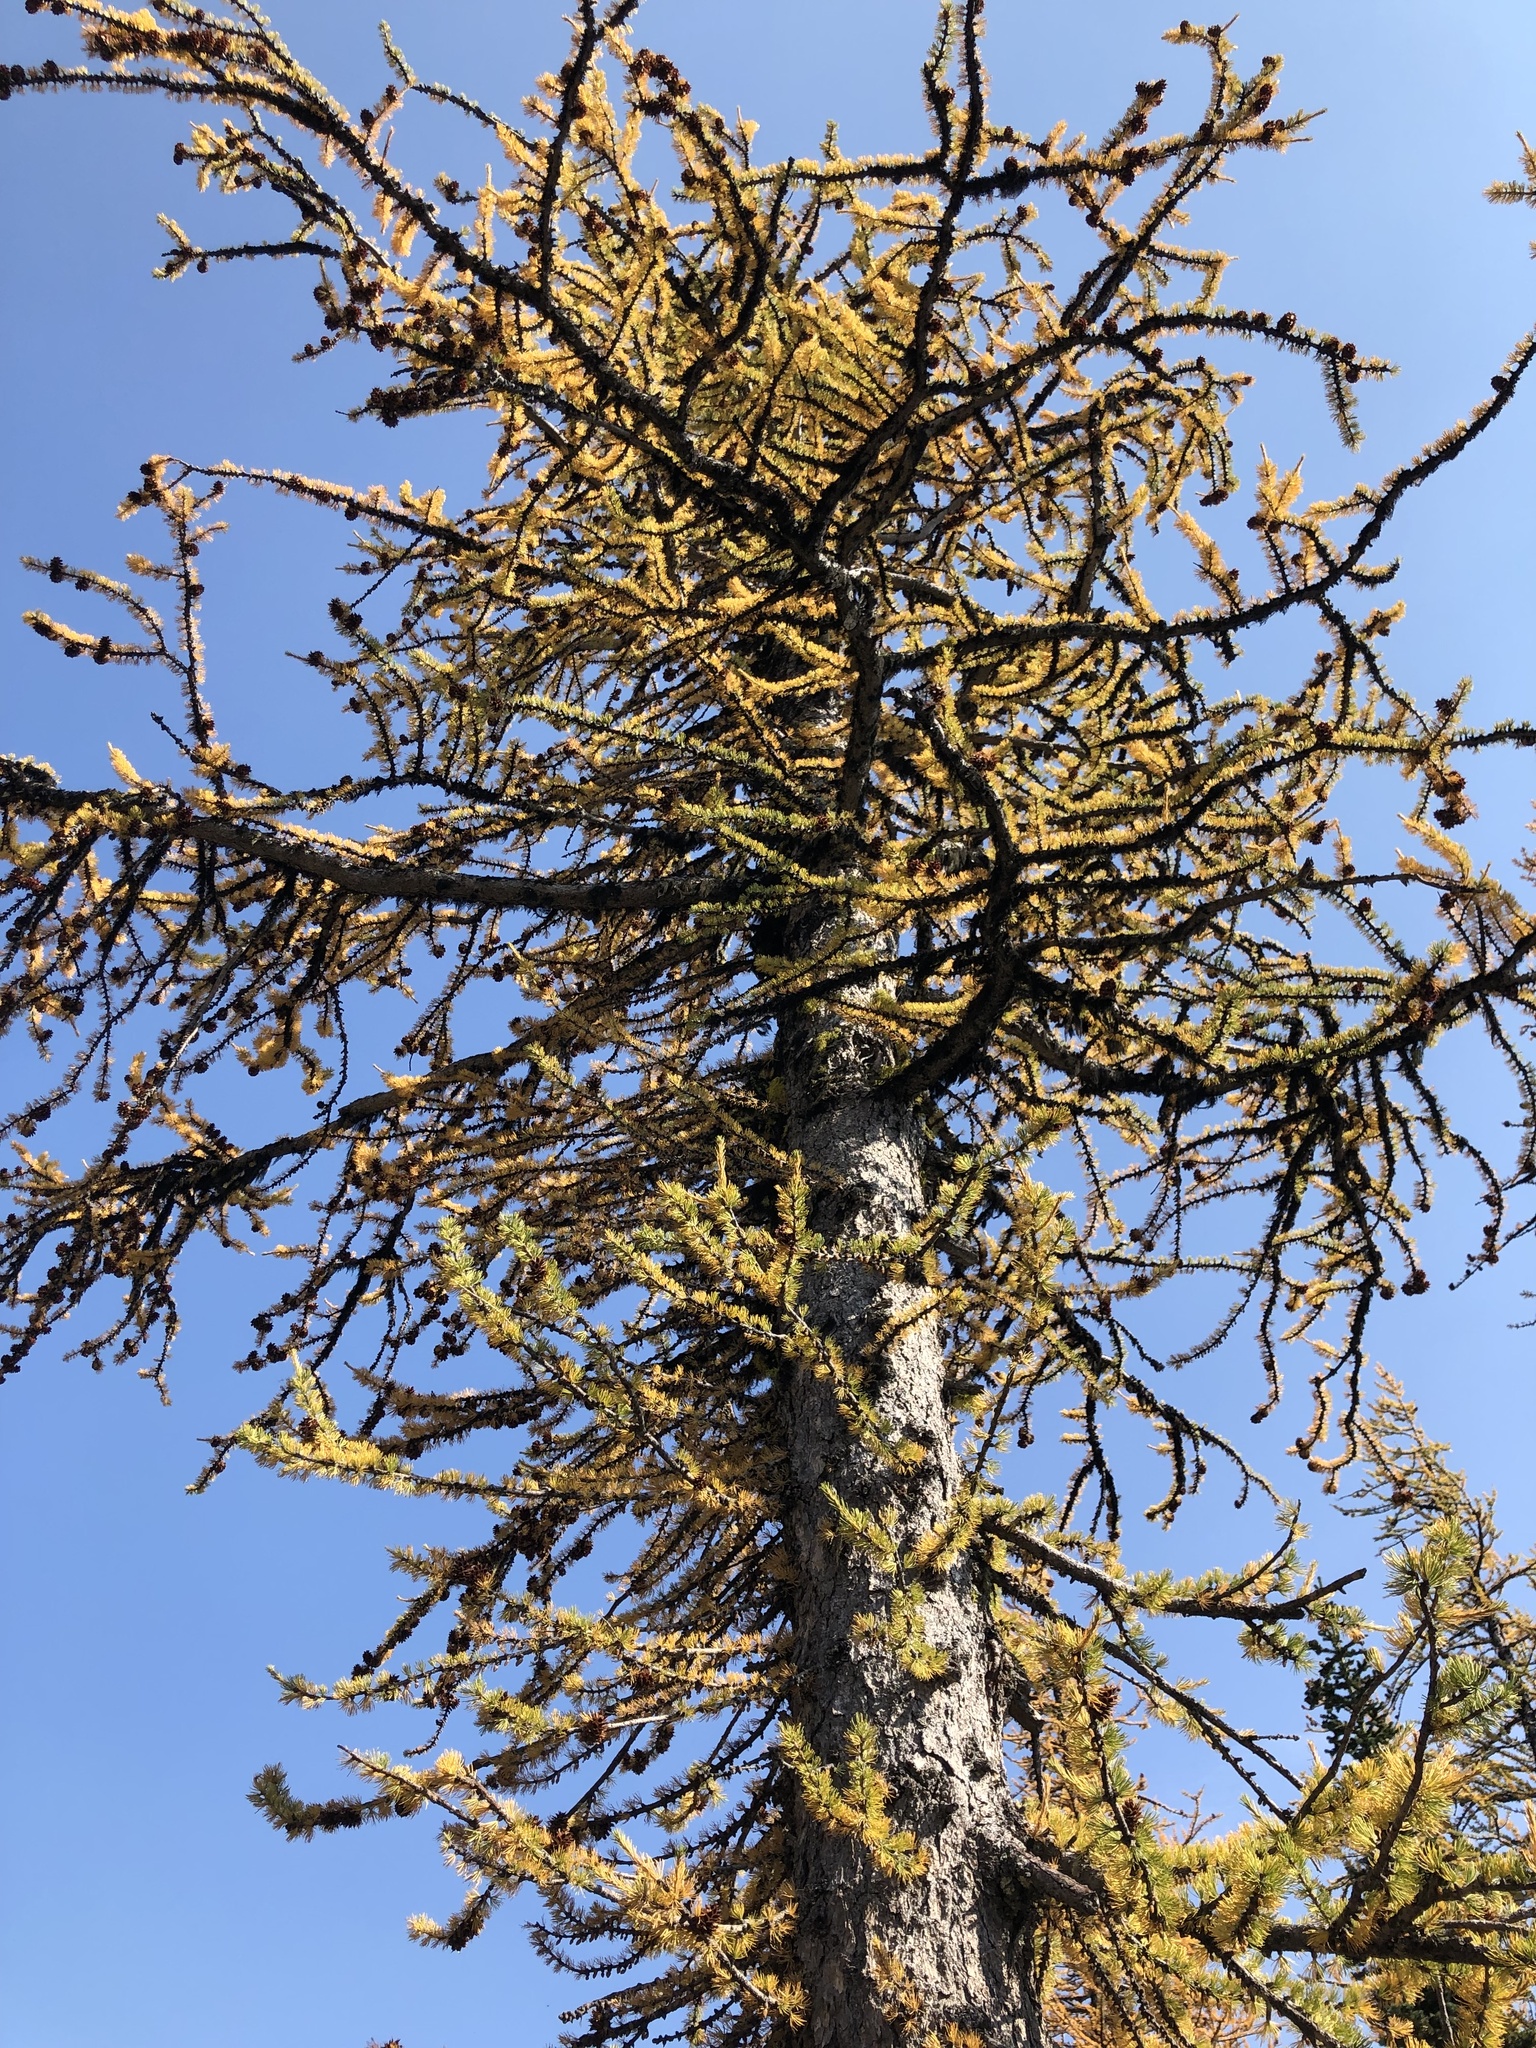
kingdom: Plantae
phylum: Tracheophyta
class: Pinopsida
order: Pinales
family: Pinaceae
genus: Larix
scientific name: Larix lyallii
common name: Alpine larch
